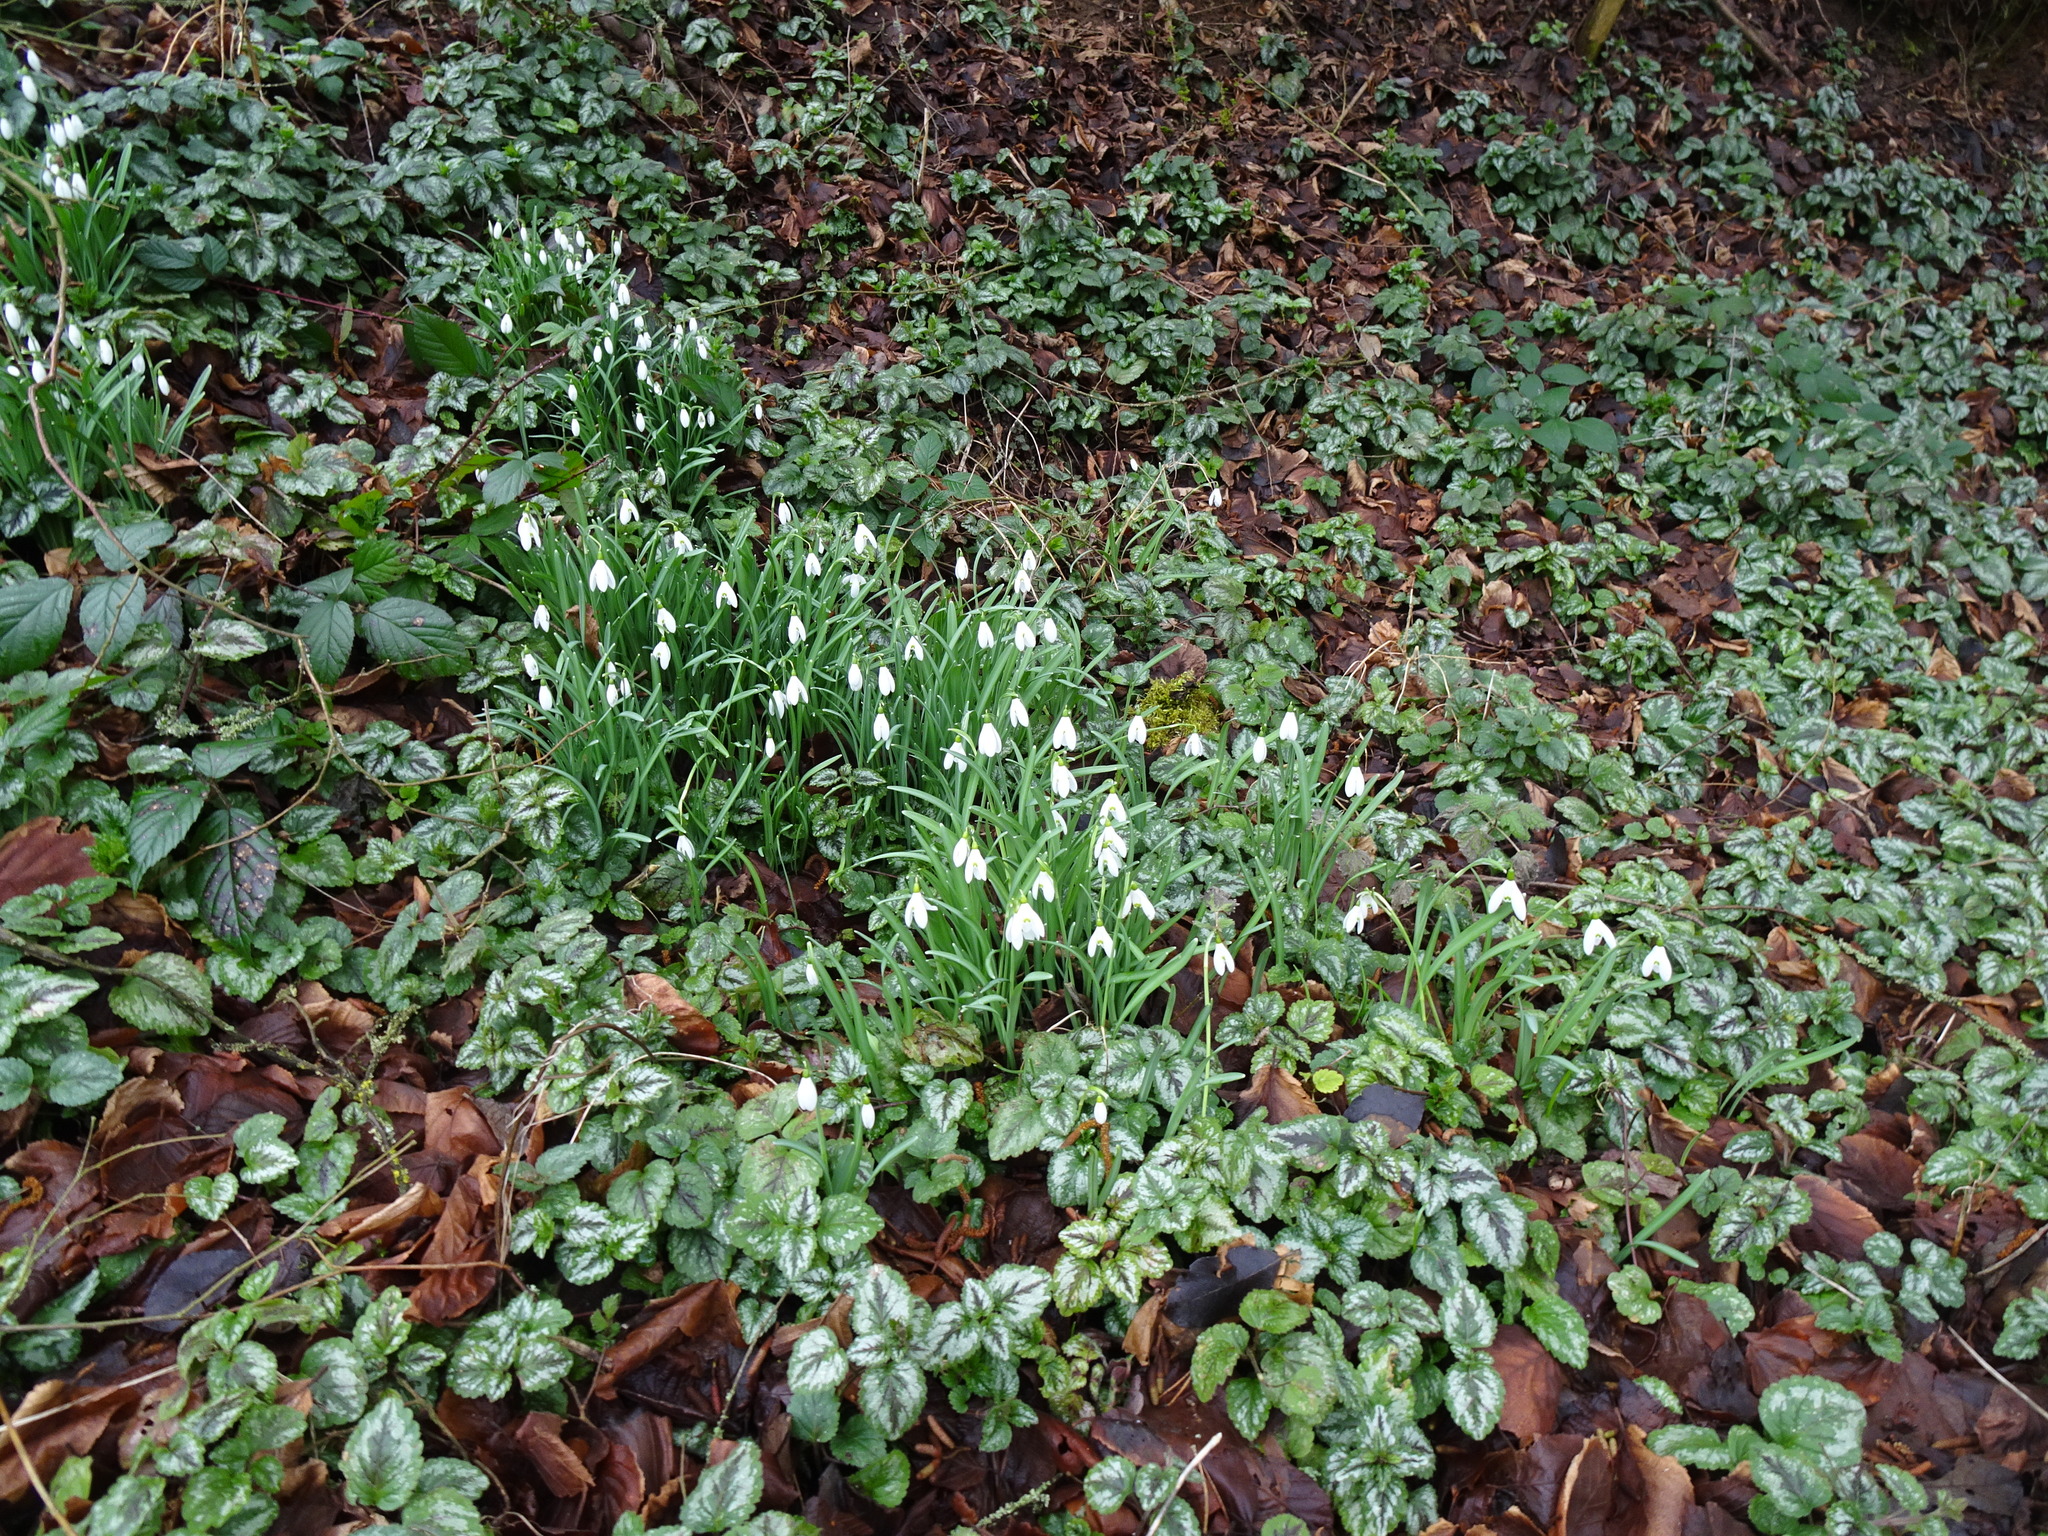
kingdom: Plantae
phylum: Tracheophyta
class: Liliopsida
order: Asparagales
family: Amaryllidaceae
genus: Galanthus
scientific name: Galanthus nivalis
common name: Snowdrop
